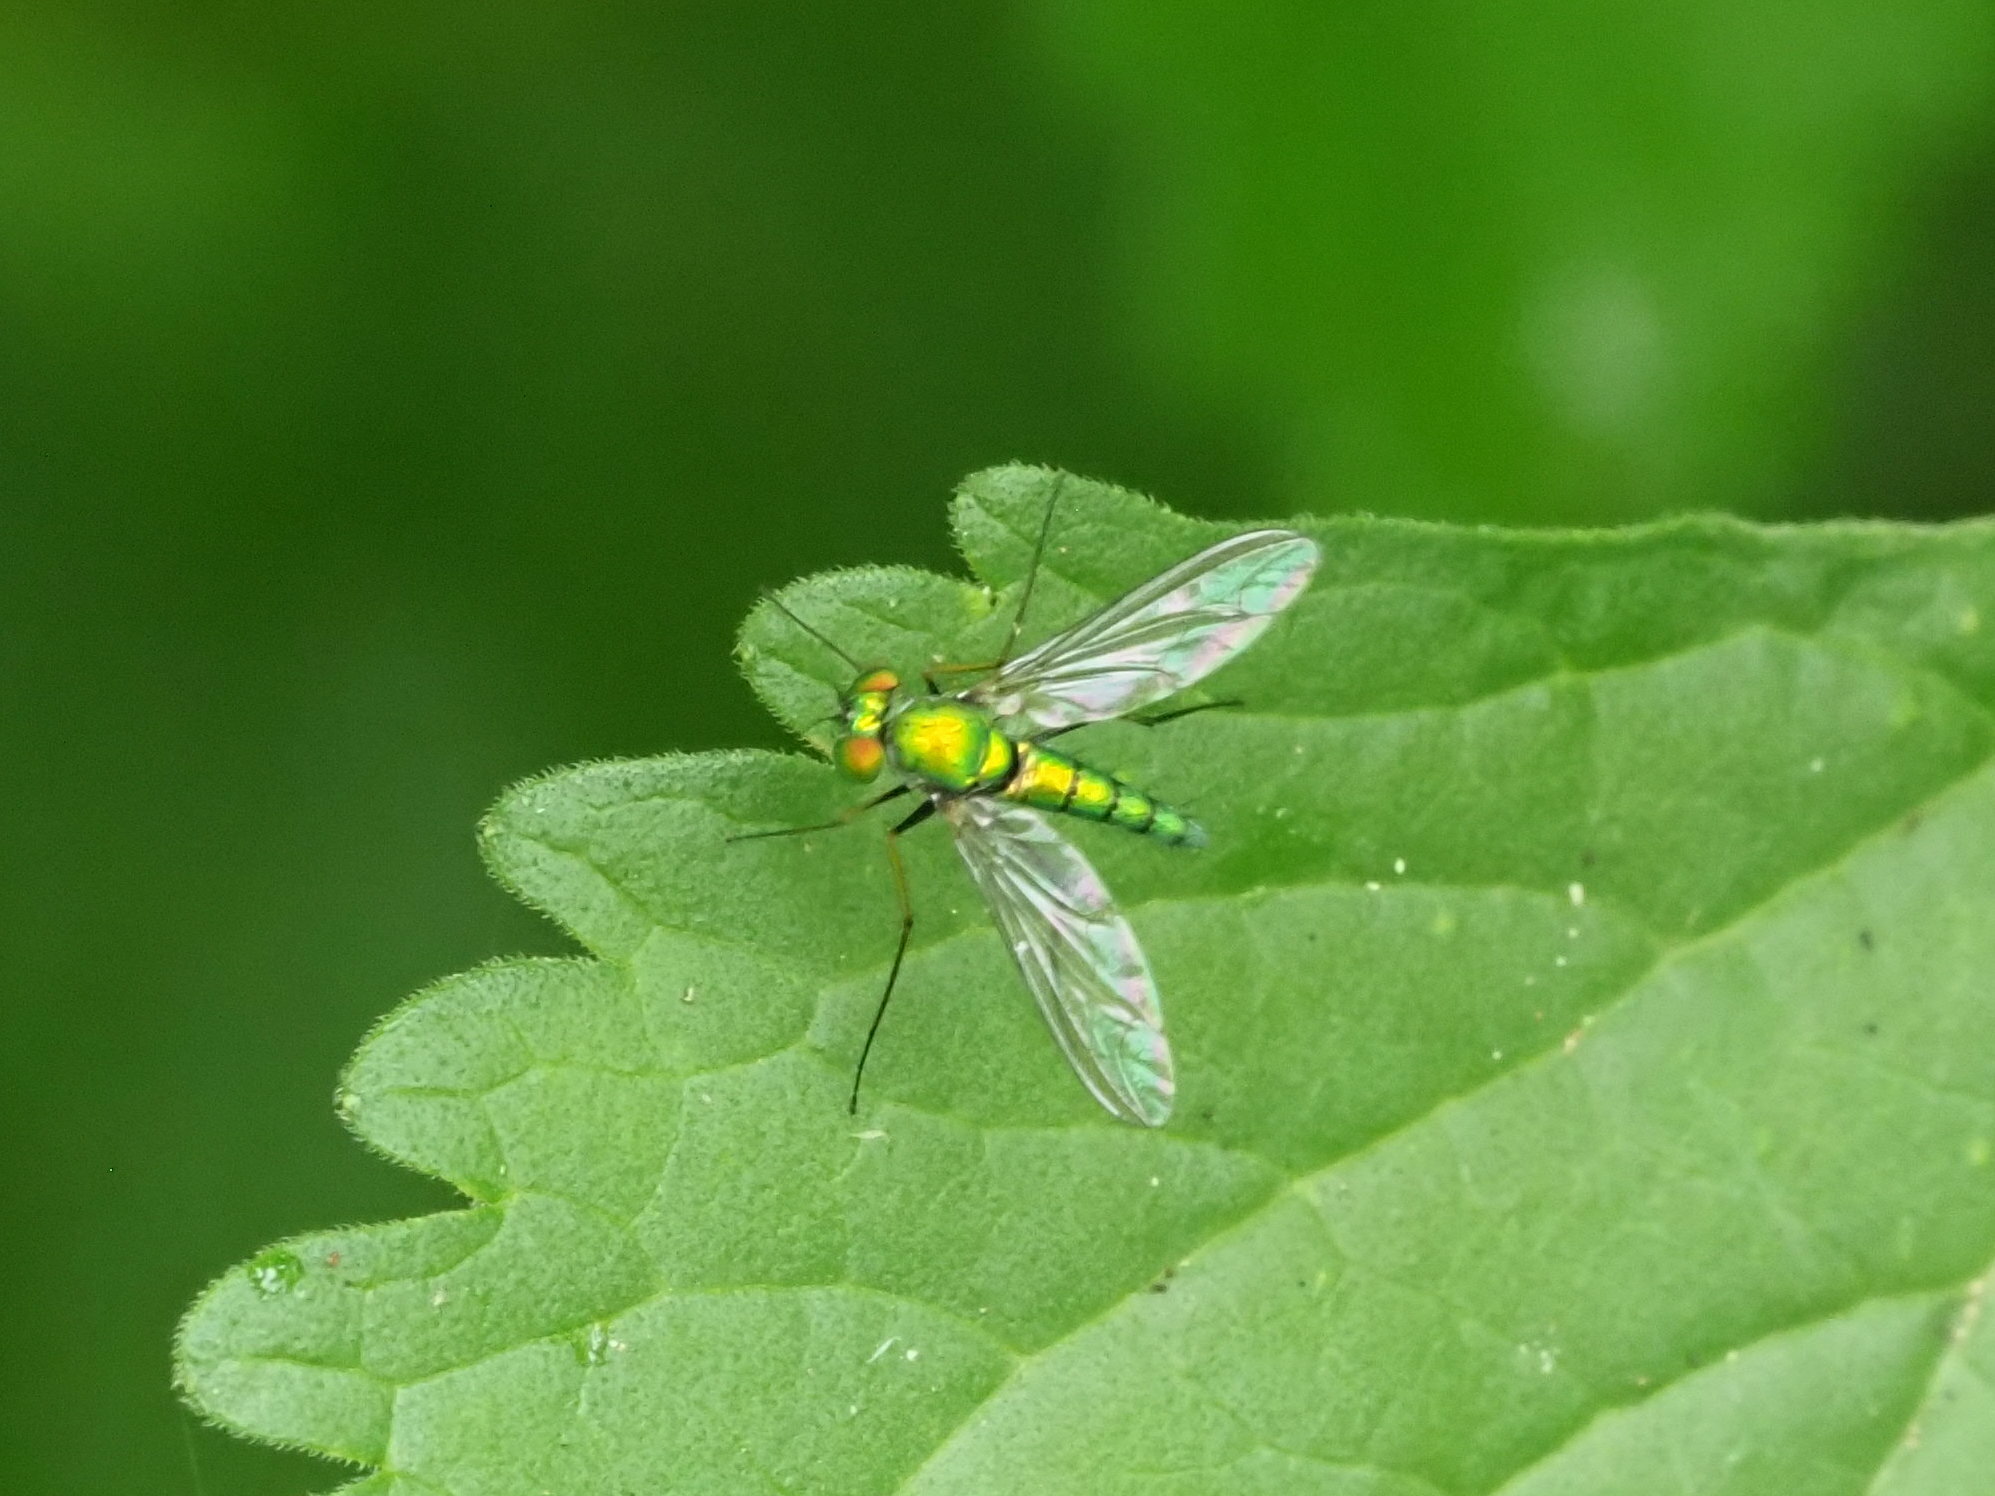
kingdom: Animalia
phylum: Arthropoda
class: Insecta
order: Diptera
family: Dolichopodidae
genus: Chrysosoma
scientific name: Chrysosoma globifer
